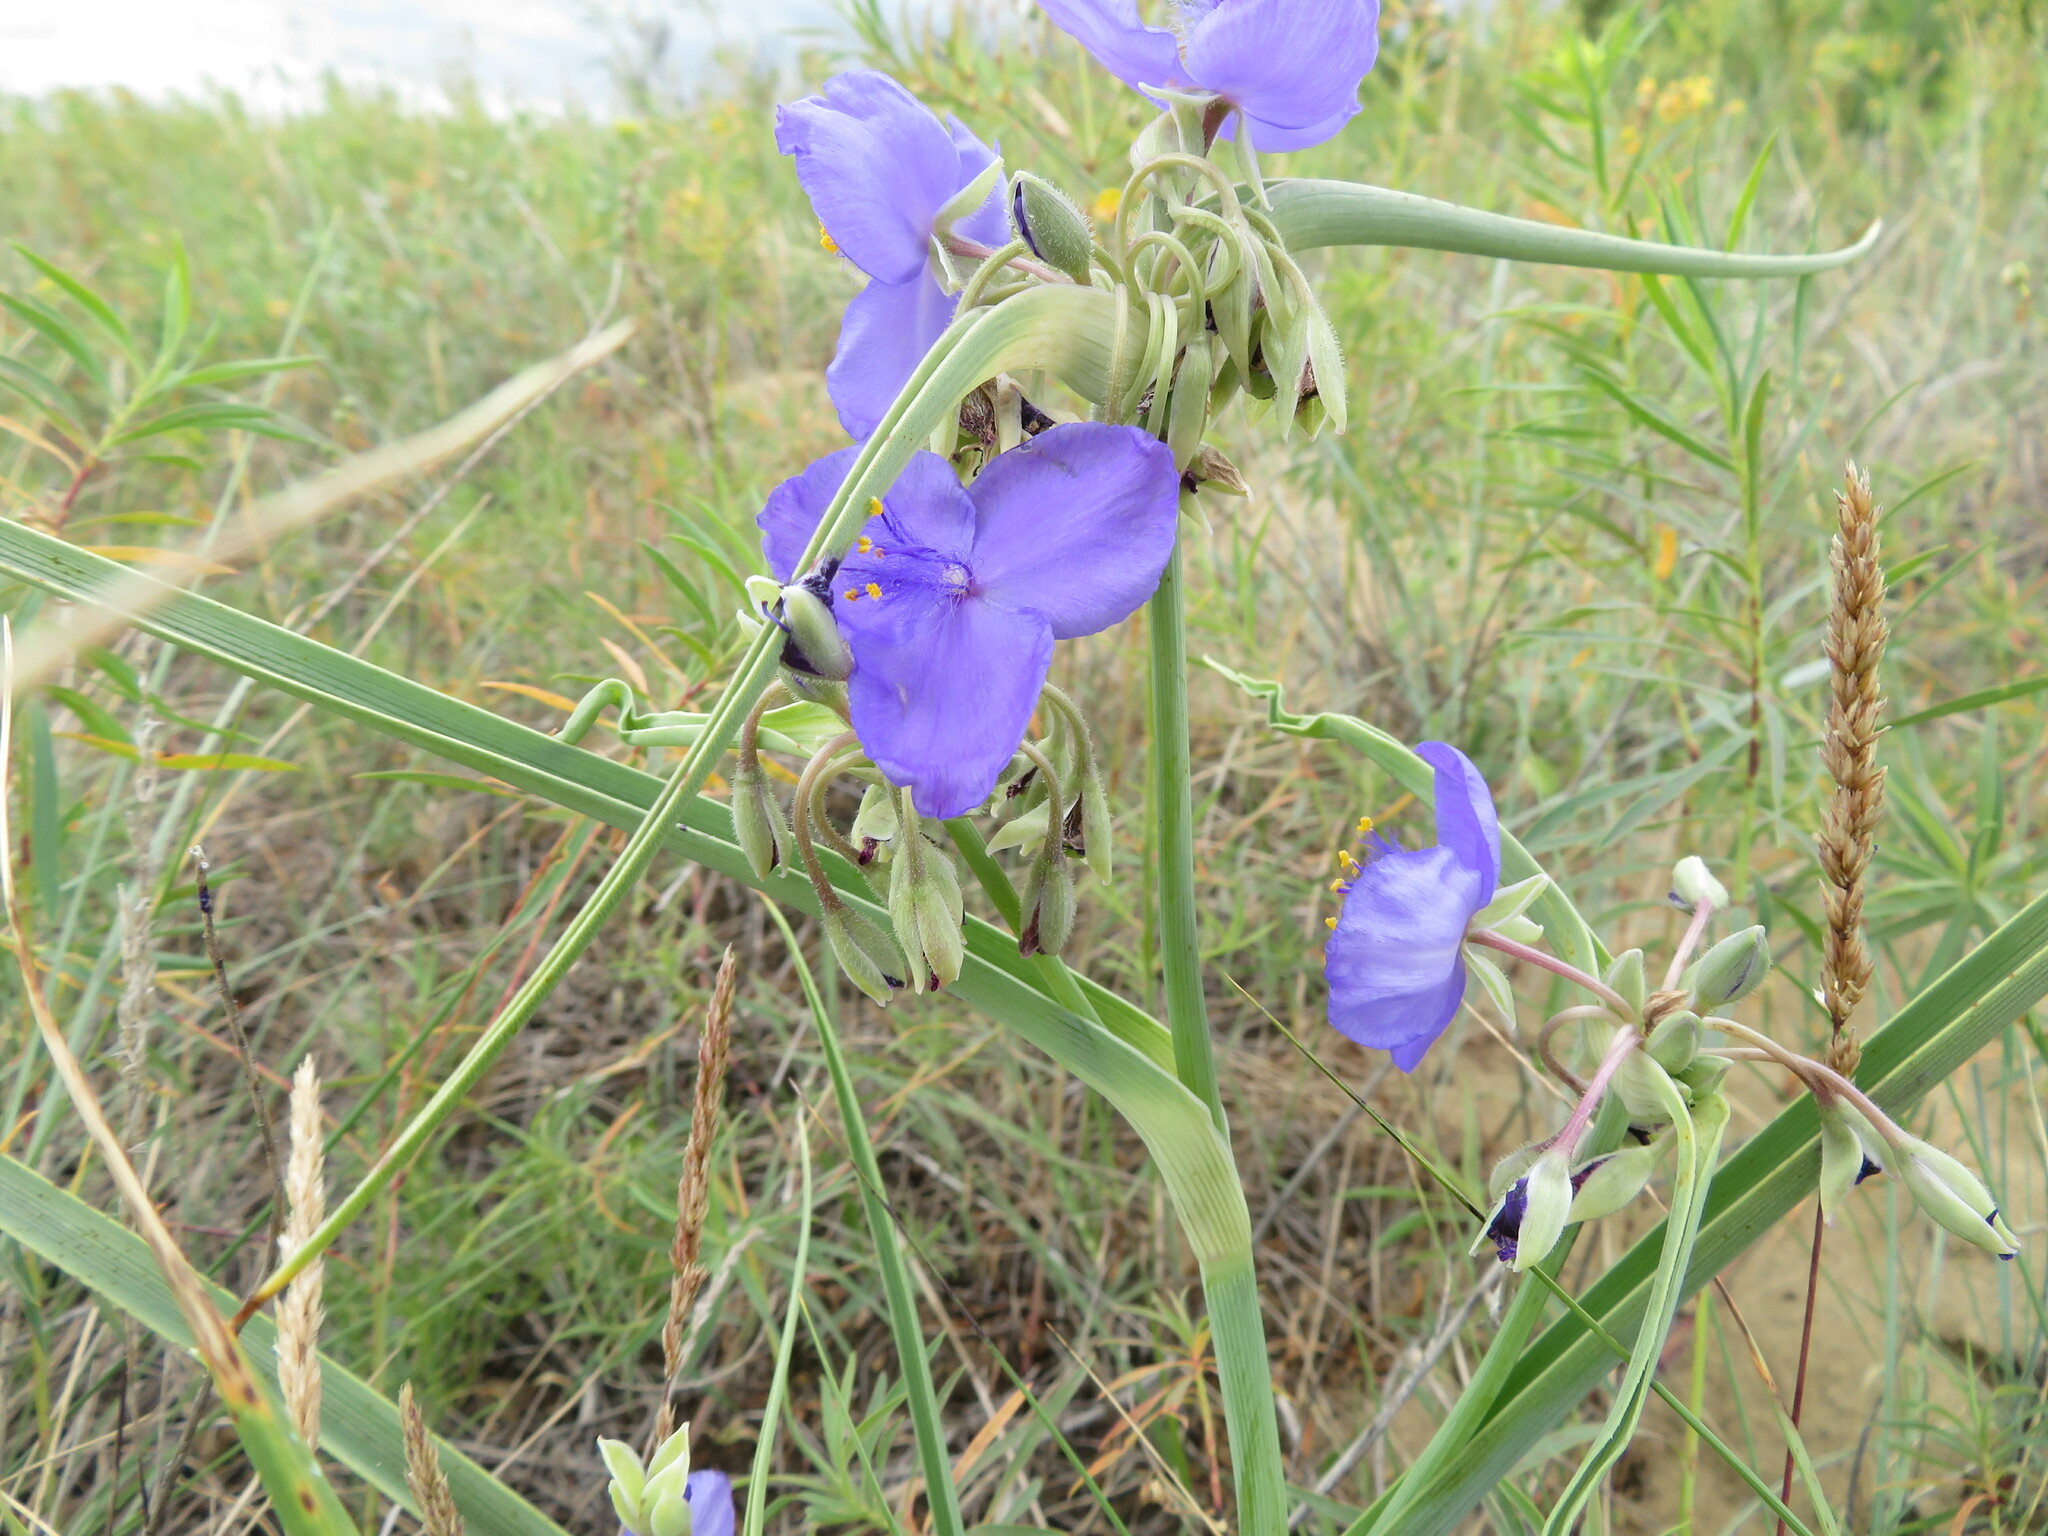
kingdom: Plantae
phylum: Tracheophyta
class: Liliopsida
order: Commelinales
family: Commelinaceae
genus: Tradescantia
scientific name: Tradescantia occidentalis
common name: Prairie spiderwort
